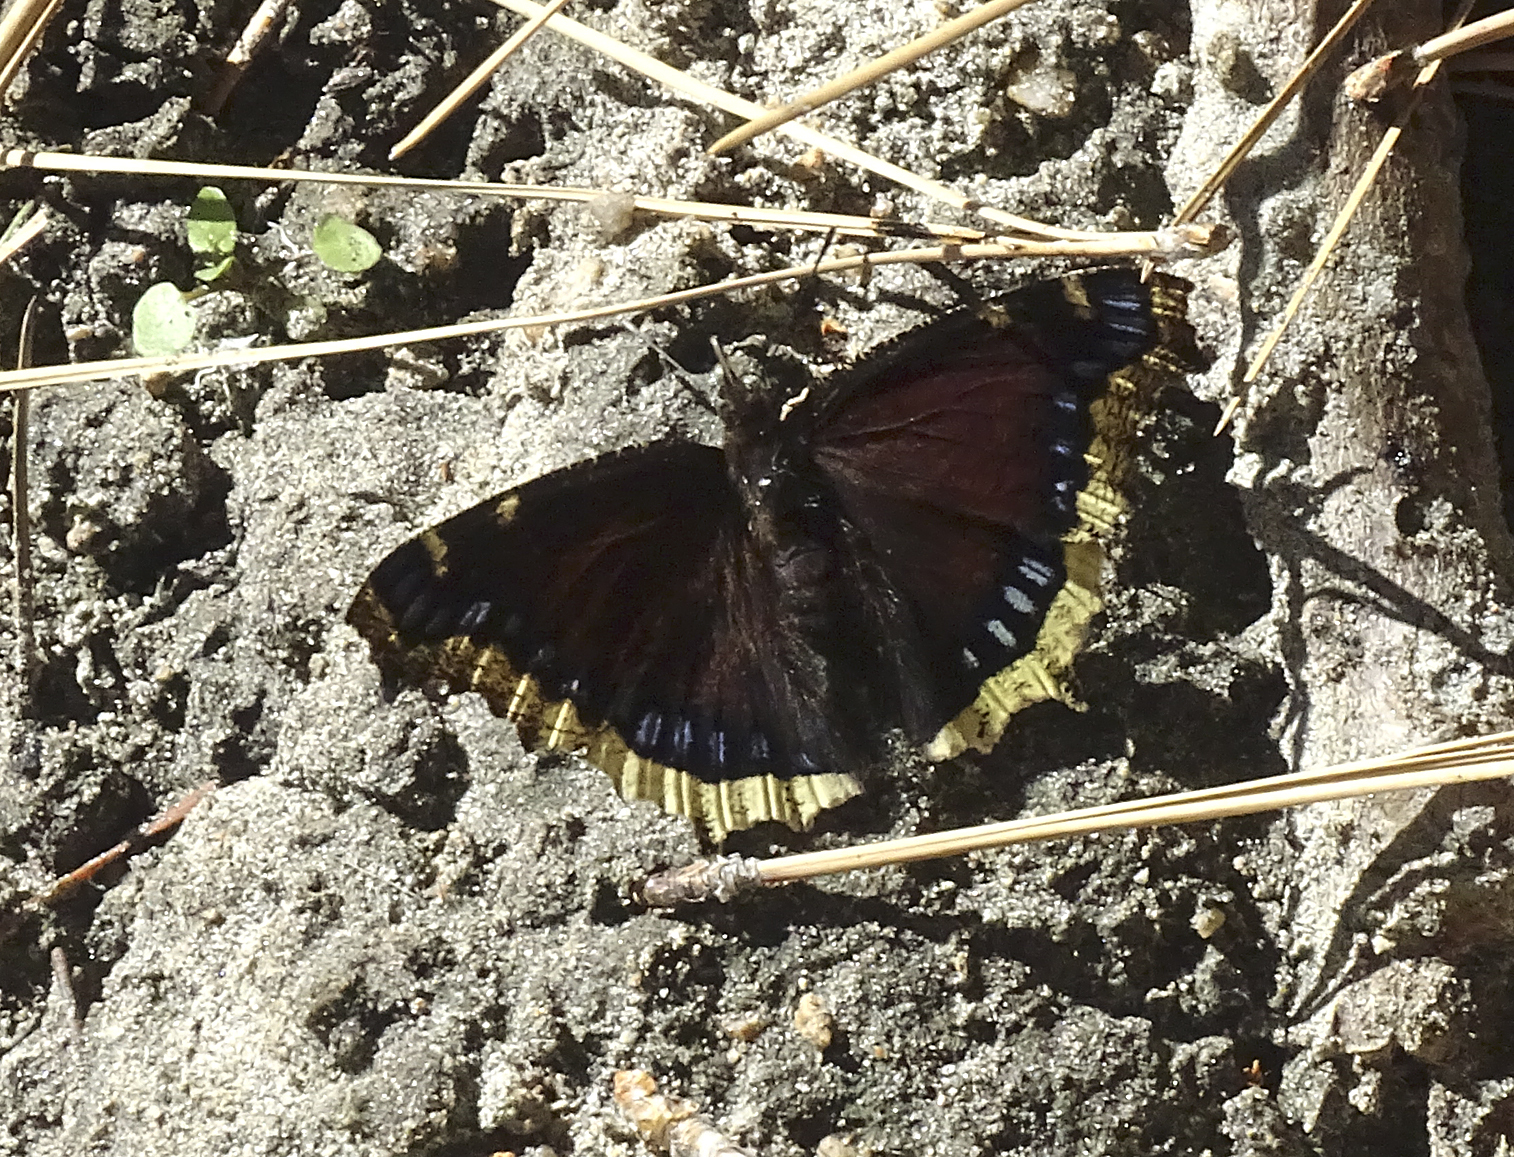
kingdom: Animalia
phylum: Arthropoda
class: Insecta
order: Lepidoptera
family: Nymphalidae
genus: Nymphalis
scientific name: Nymphalis antiopa
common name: Camberwell beauty
